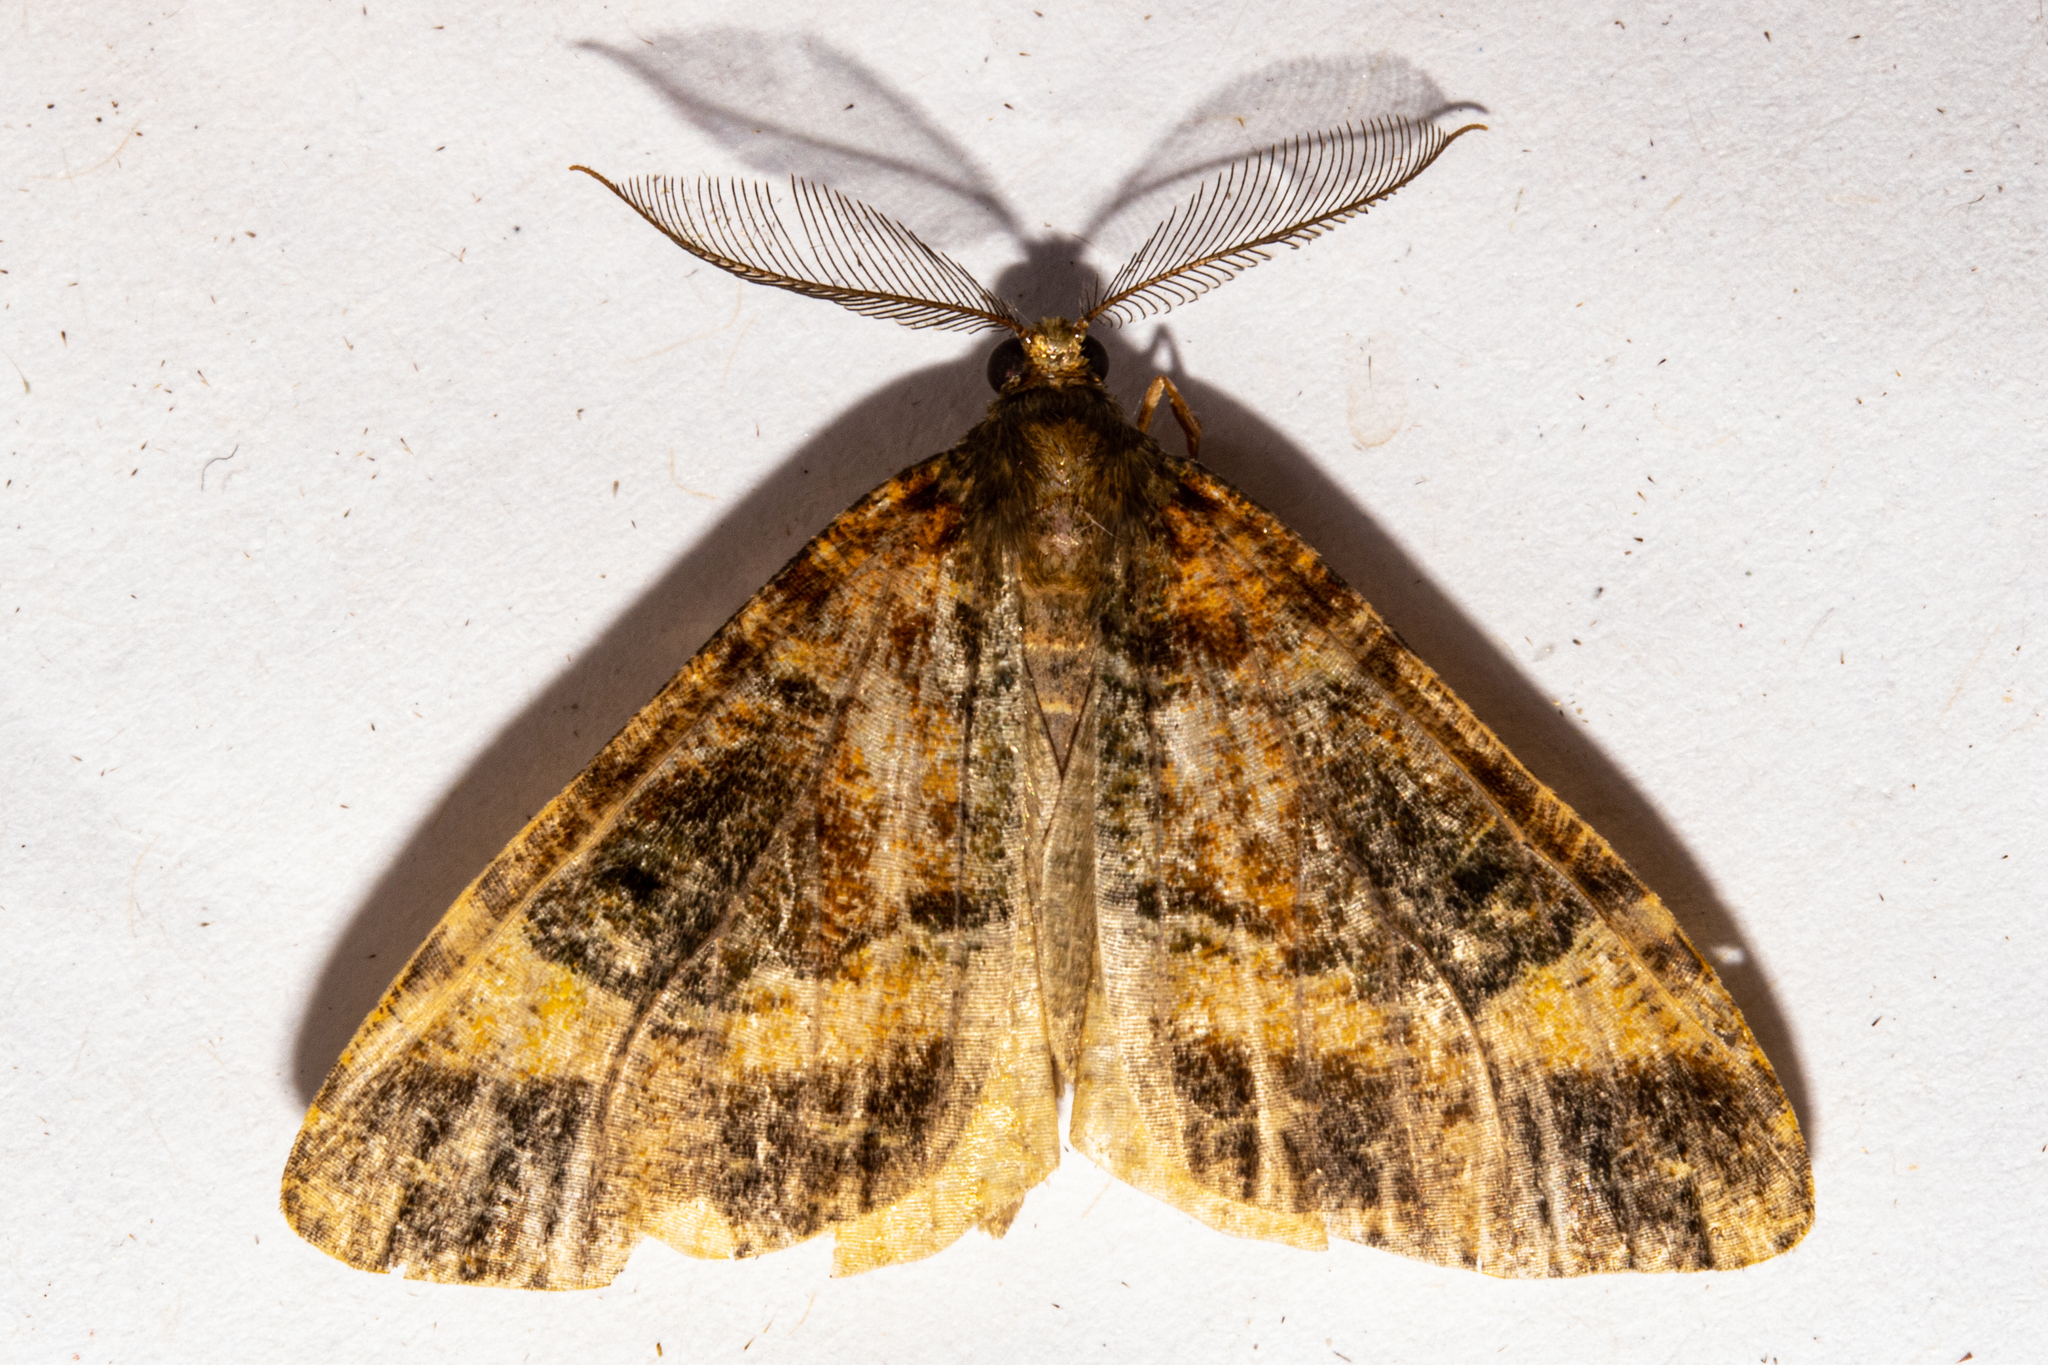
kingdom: Animalia
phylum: Arthropoda
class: Insecta
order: Lepidoptera
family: Geometridae
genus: Pseudocoremia
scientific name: Pseudocoremia productata
